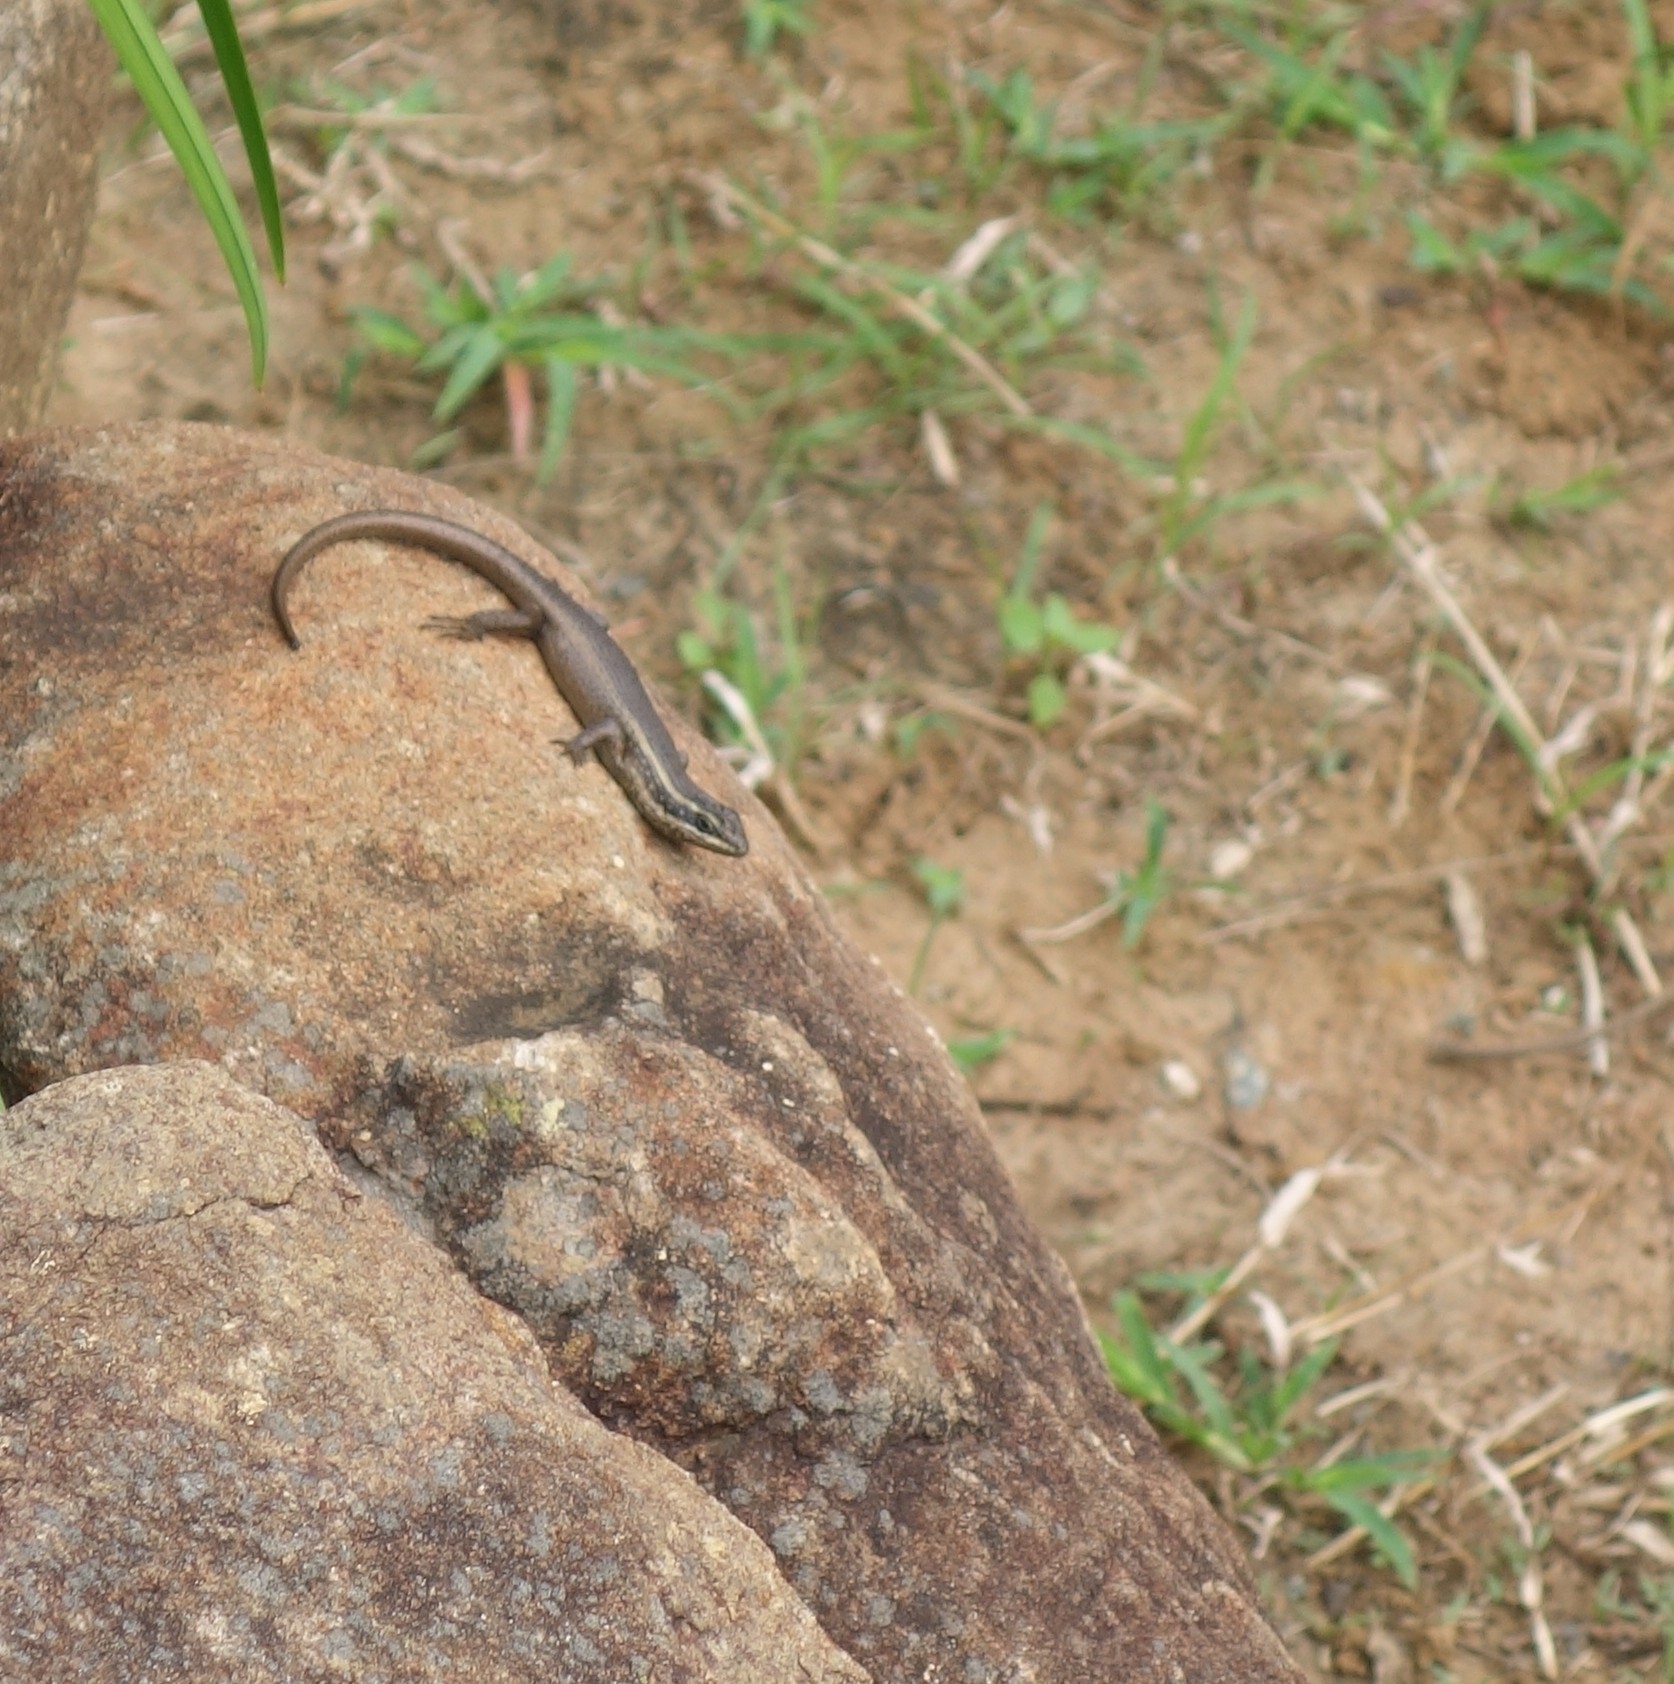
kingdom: Animalia
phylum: Chordata
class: Squamata
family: Scincidae
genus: Trachylepis
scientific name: Trachylepis punctatissima
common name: Montane speckled skink
